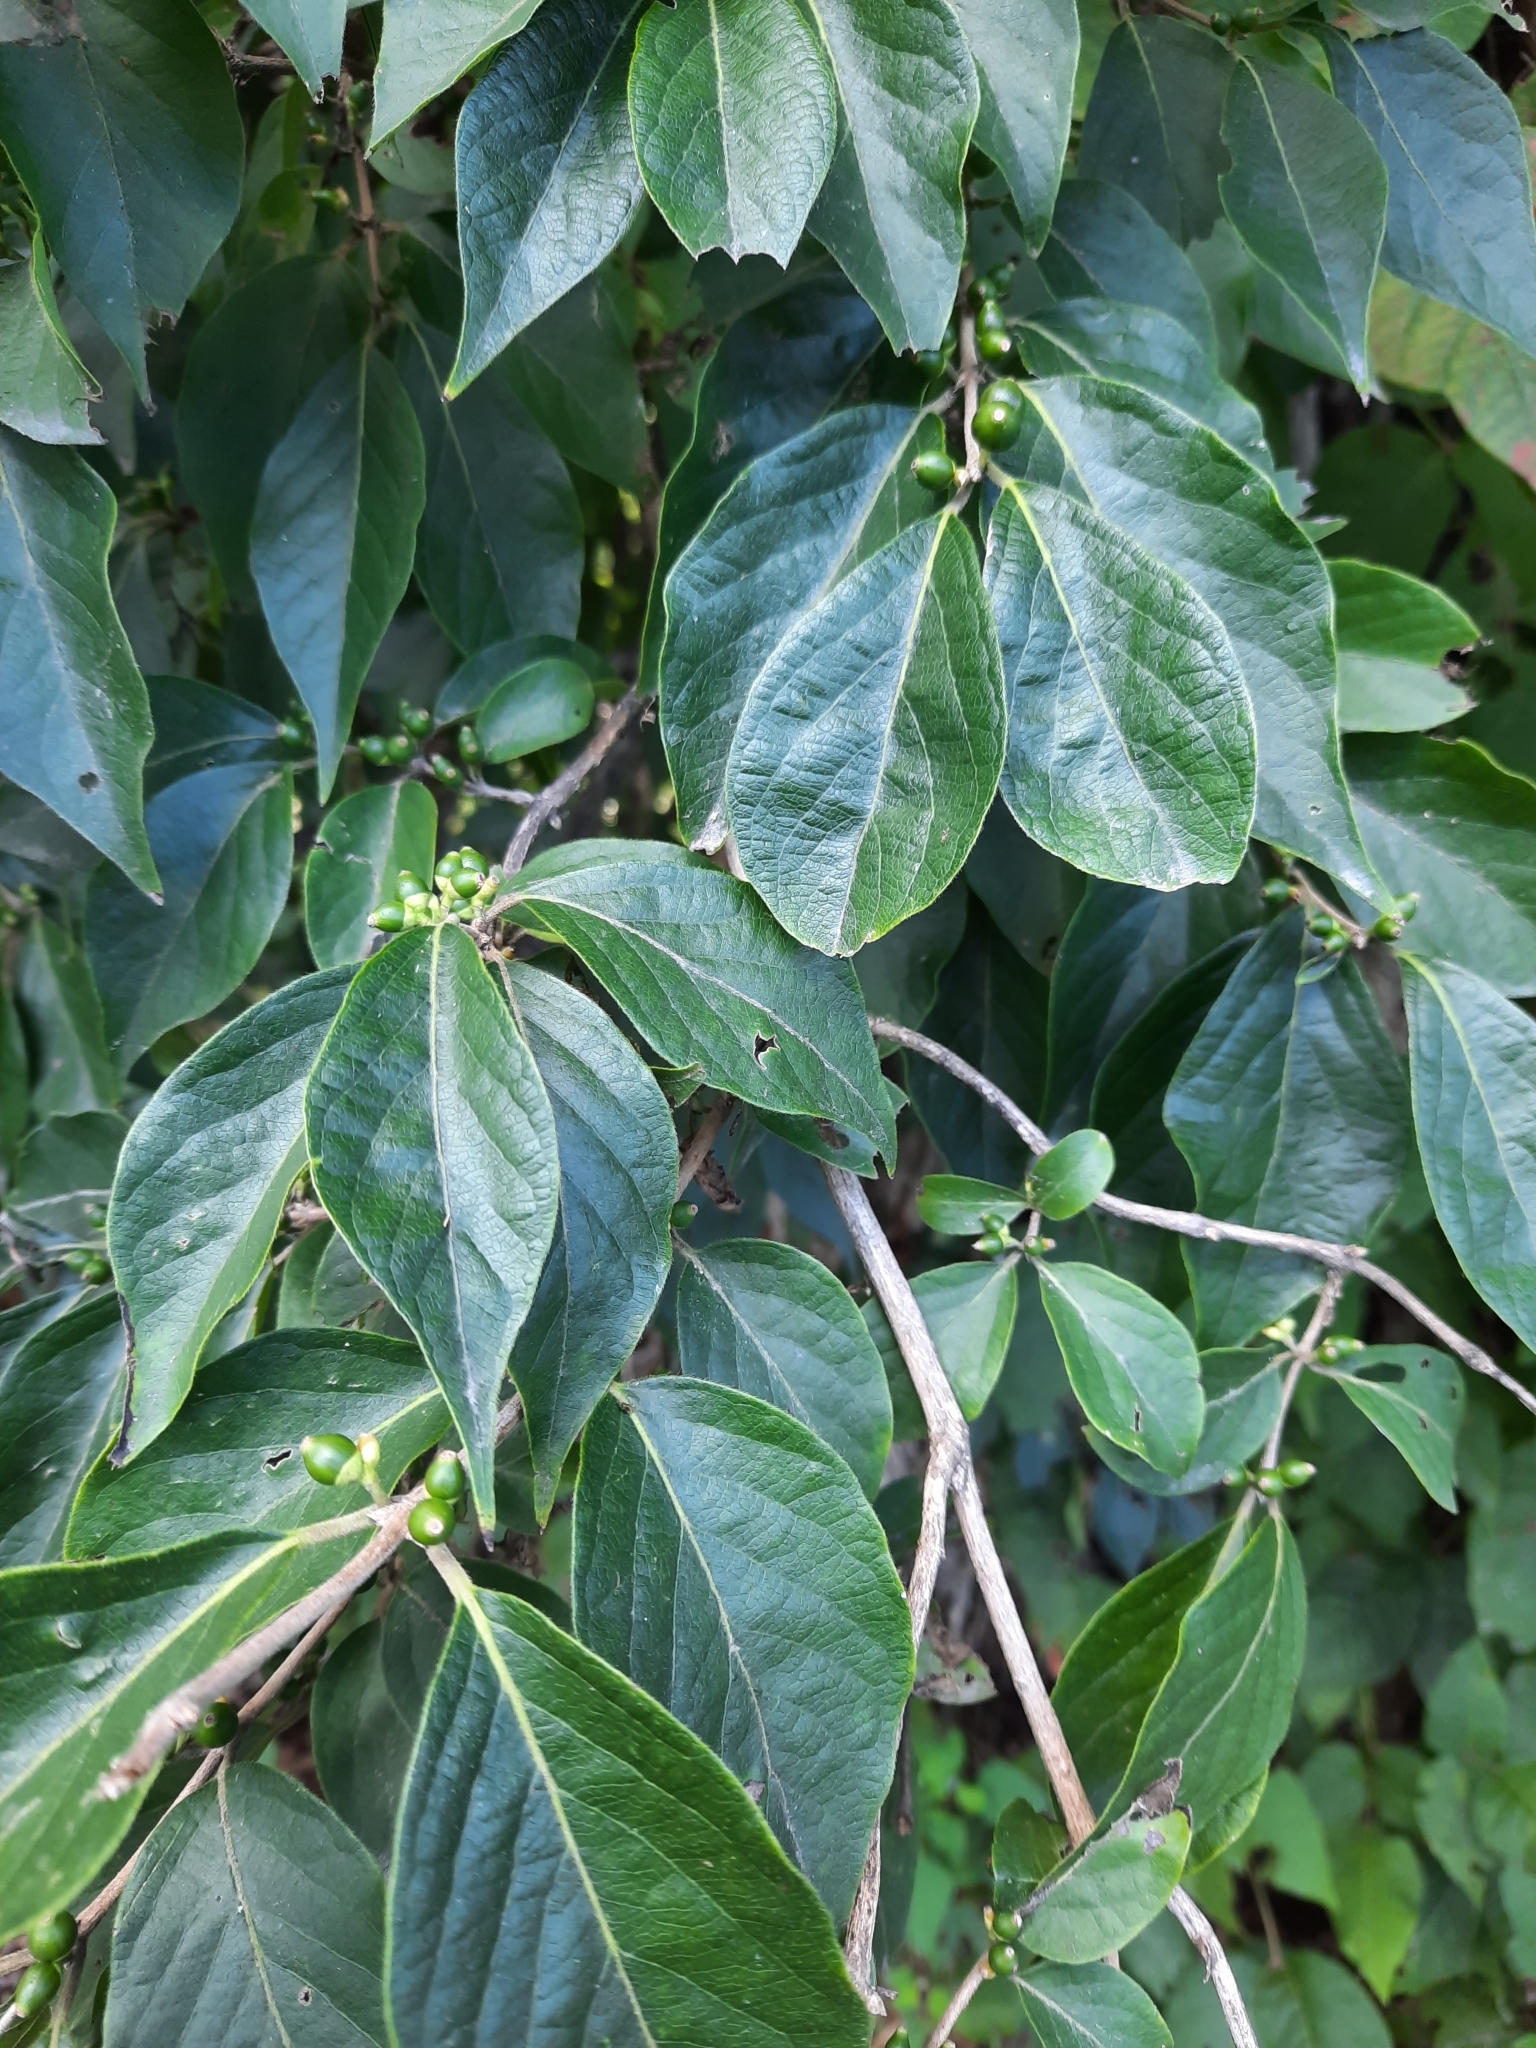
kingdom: Plantae
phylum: Tracheophyta
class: Magnoliopsida
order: Dipsacales
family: Caprifoliaceae
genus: Lonicera
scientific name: Lonicera maackii
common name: Amur honeysuckle
